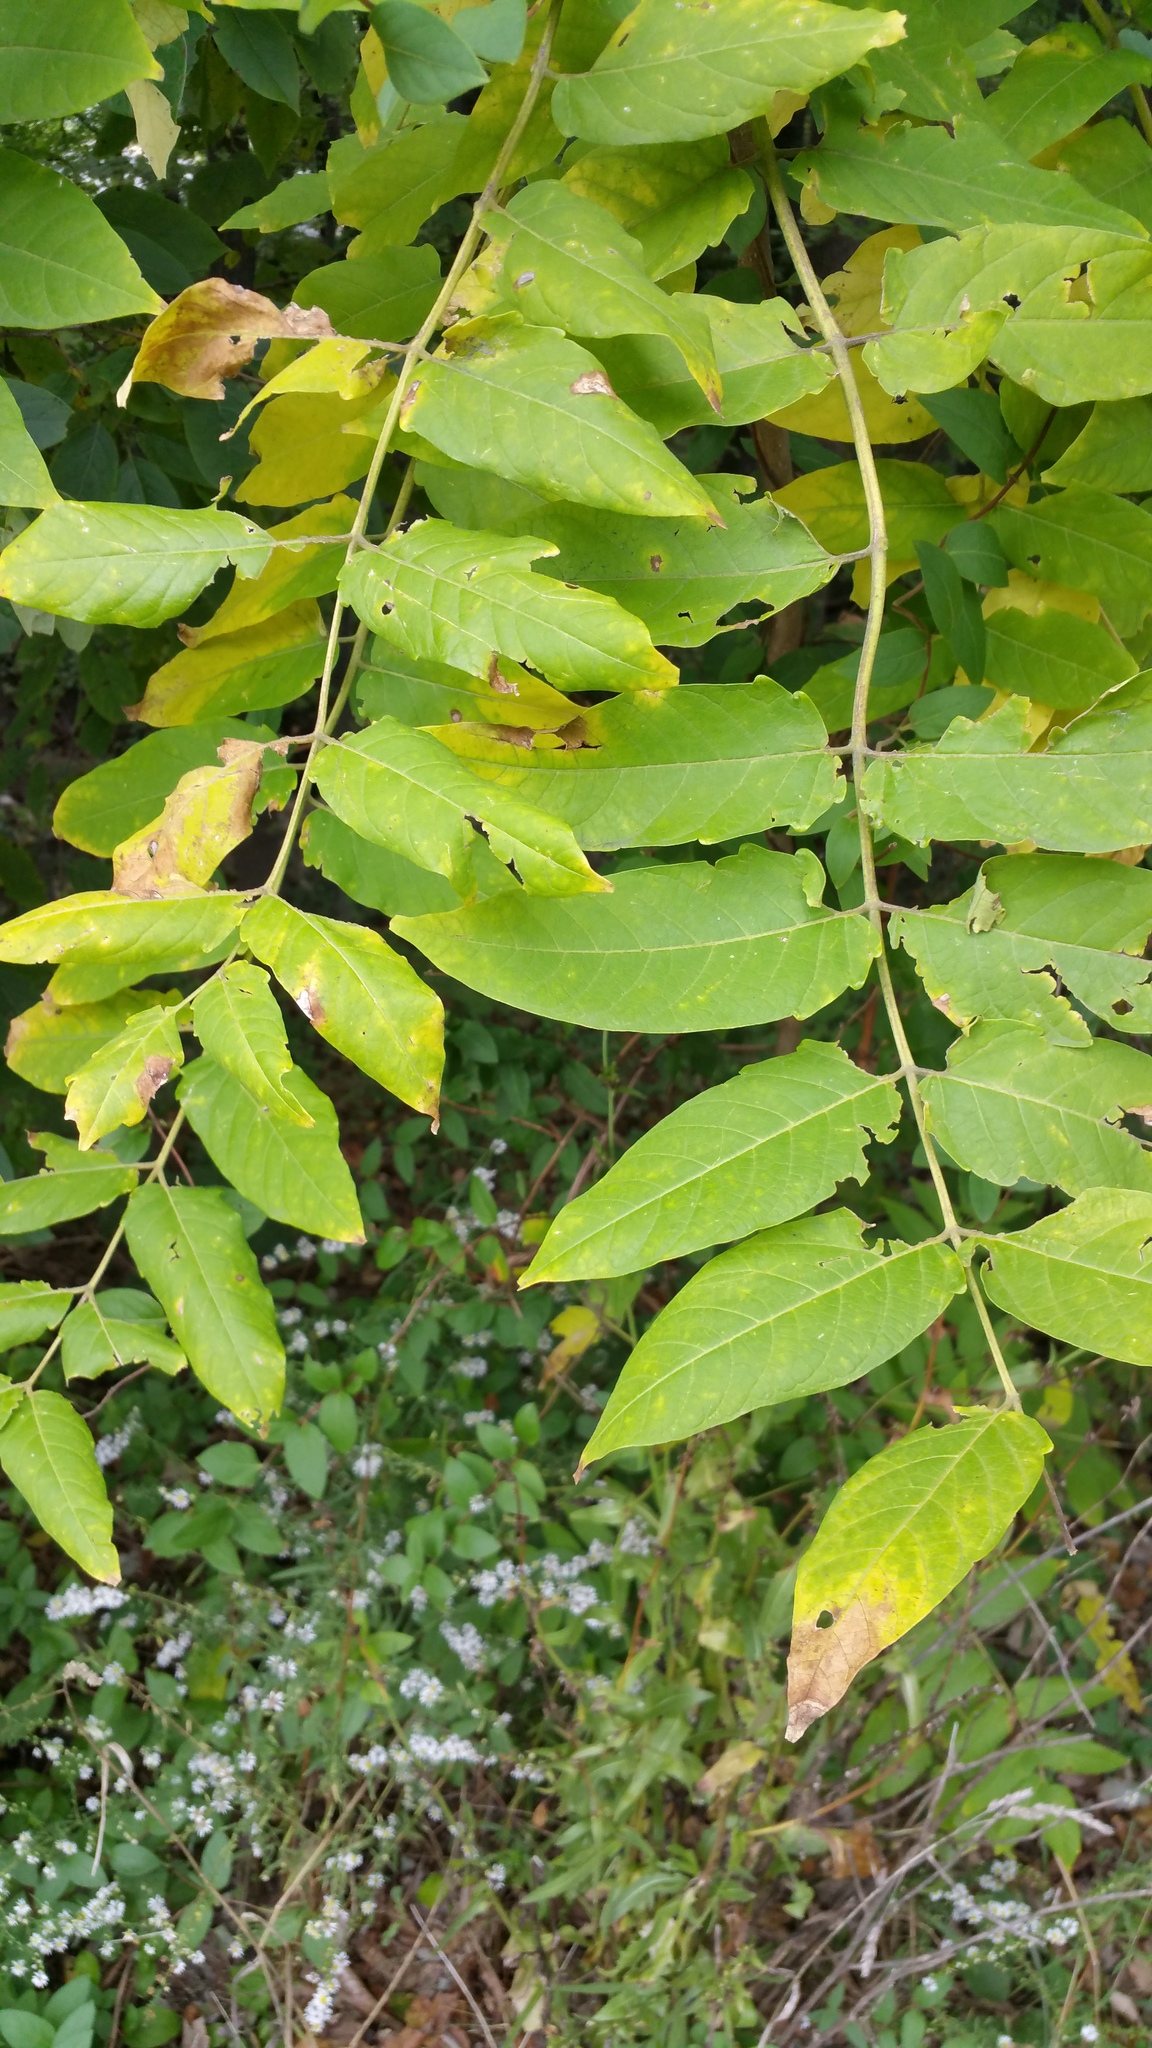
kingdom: Plantae
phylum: Tracheophyta
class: Magnoliopsida
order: Sapindales
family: Simaroubaceae
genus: Ailanthus
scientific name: Ailanthus altissima
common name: Tree-of-heaven
